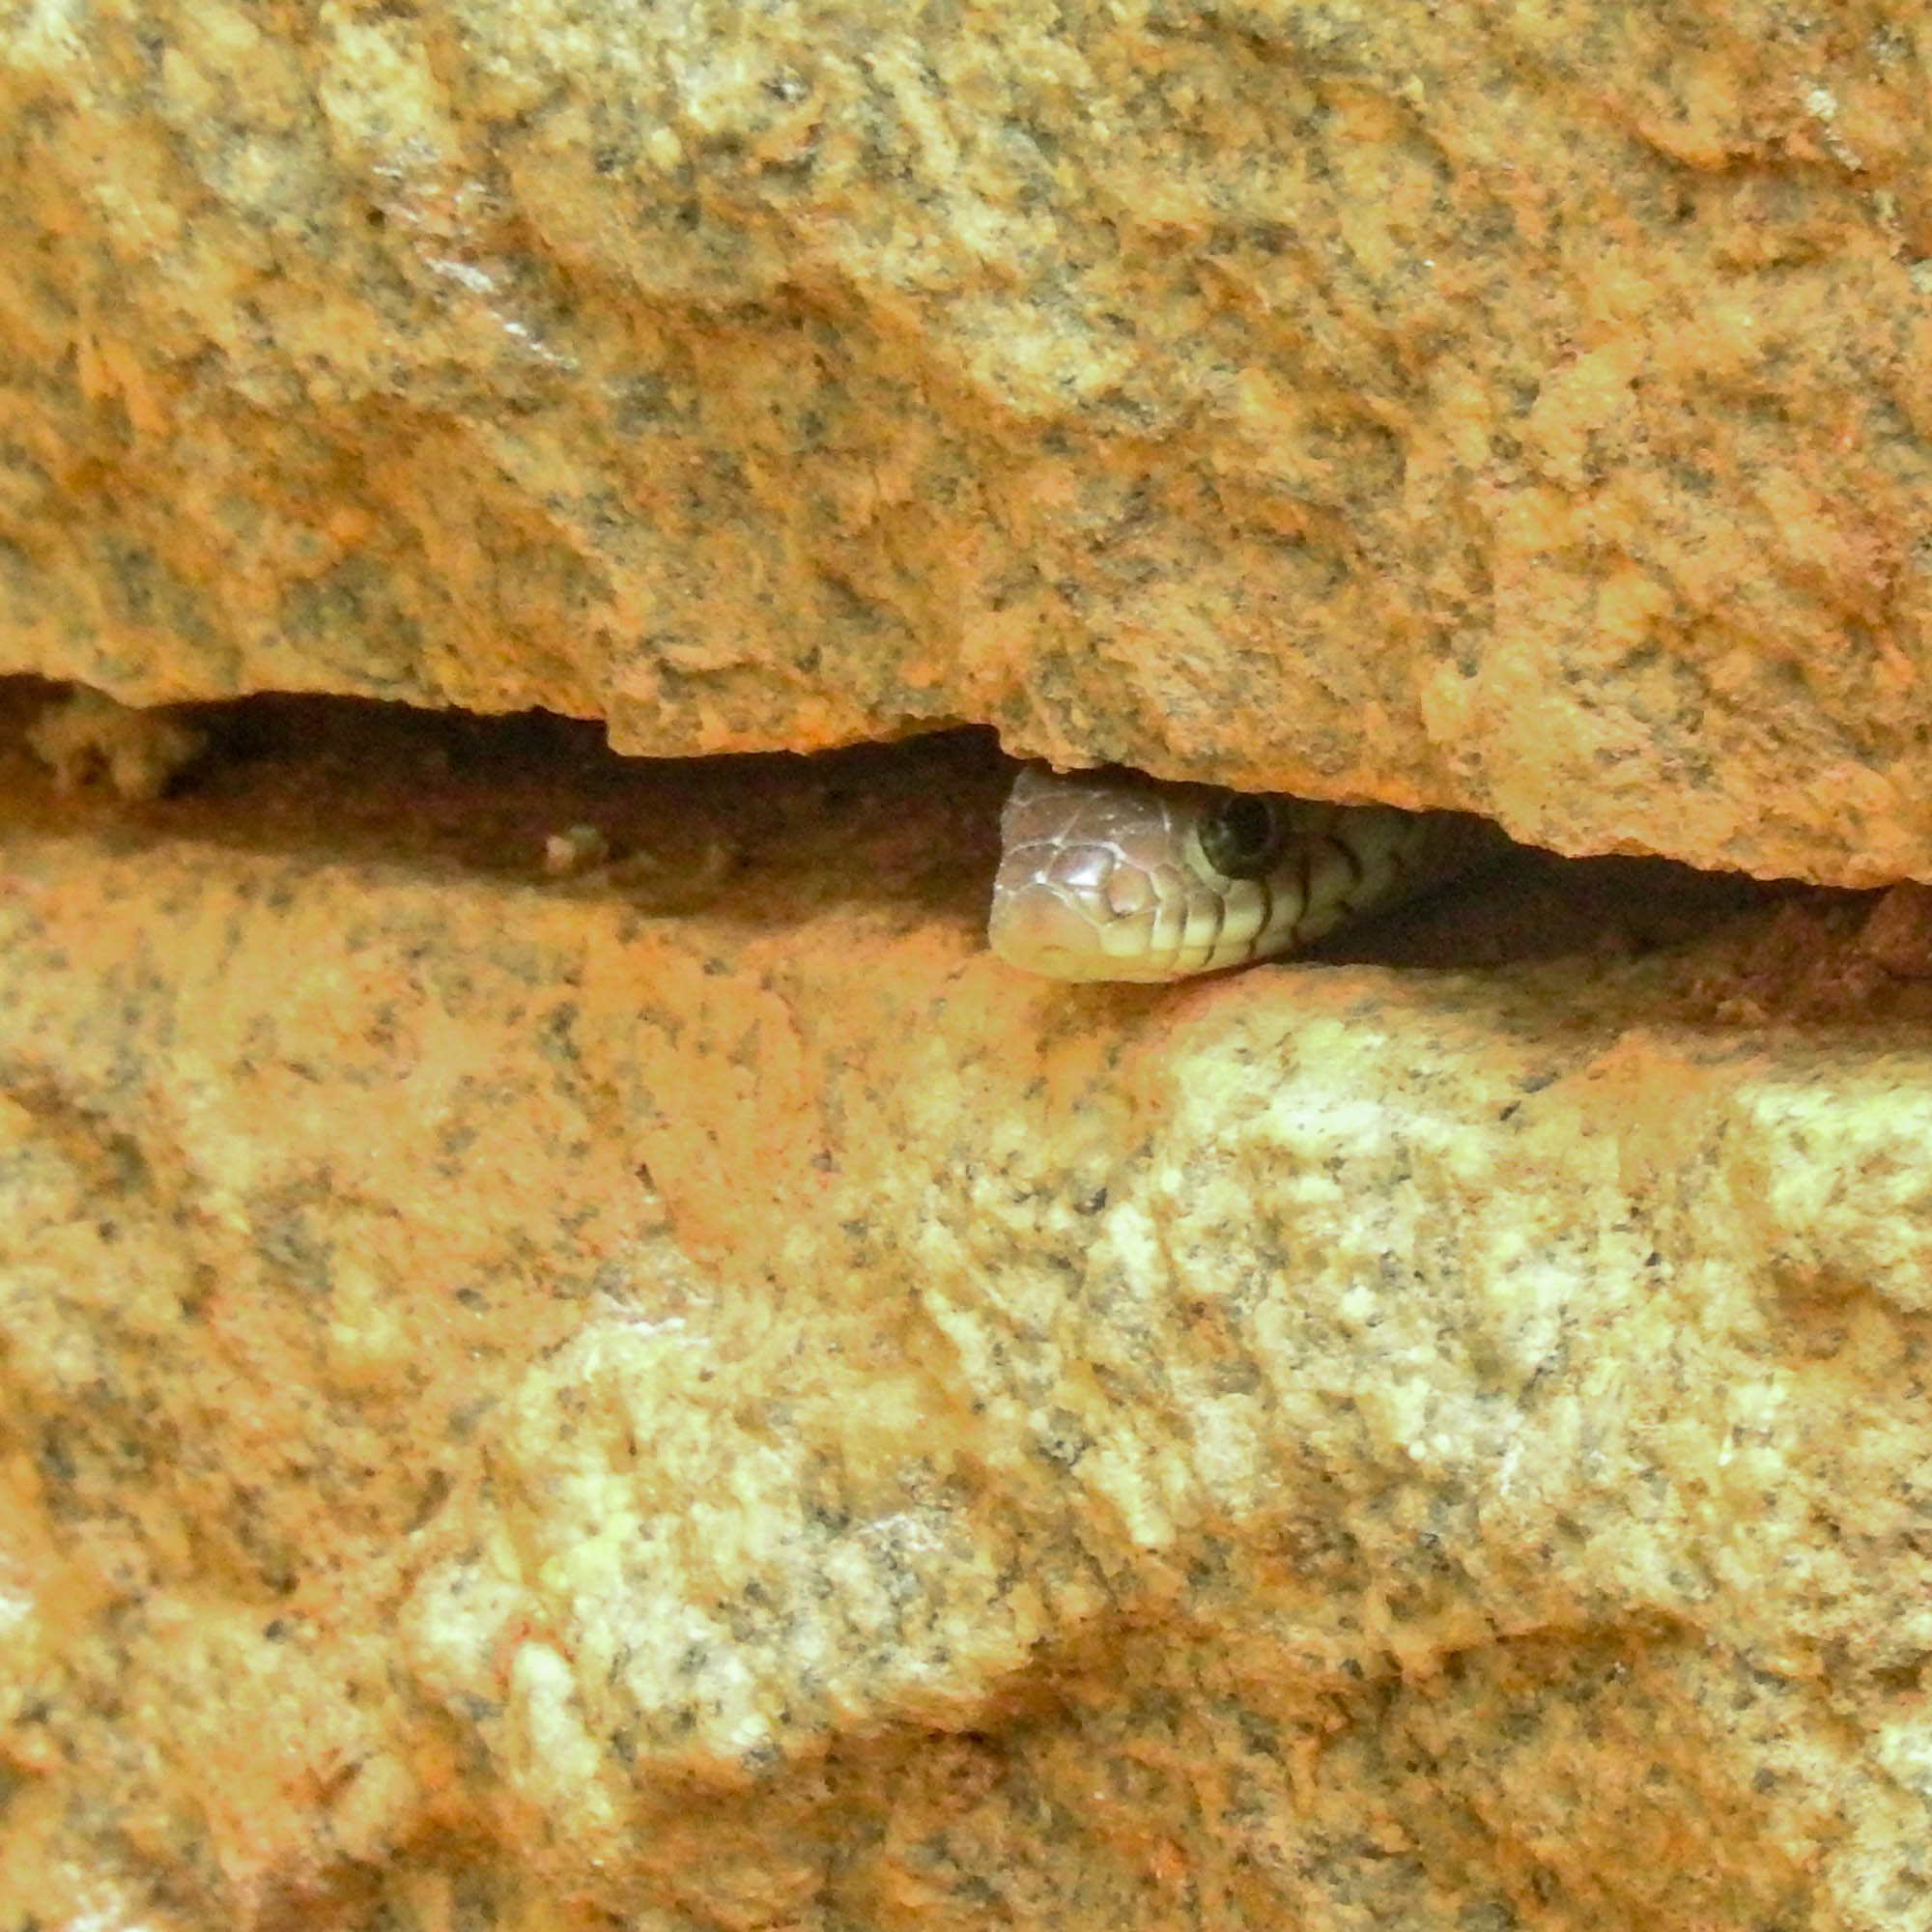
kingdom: Animalia
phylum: Chordata
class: Squamata
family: Colubridae
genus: Ptyas
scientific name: Ptyas mucosa
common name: Oriental ratsnake
